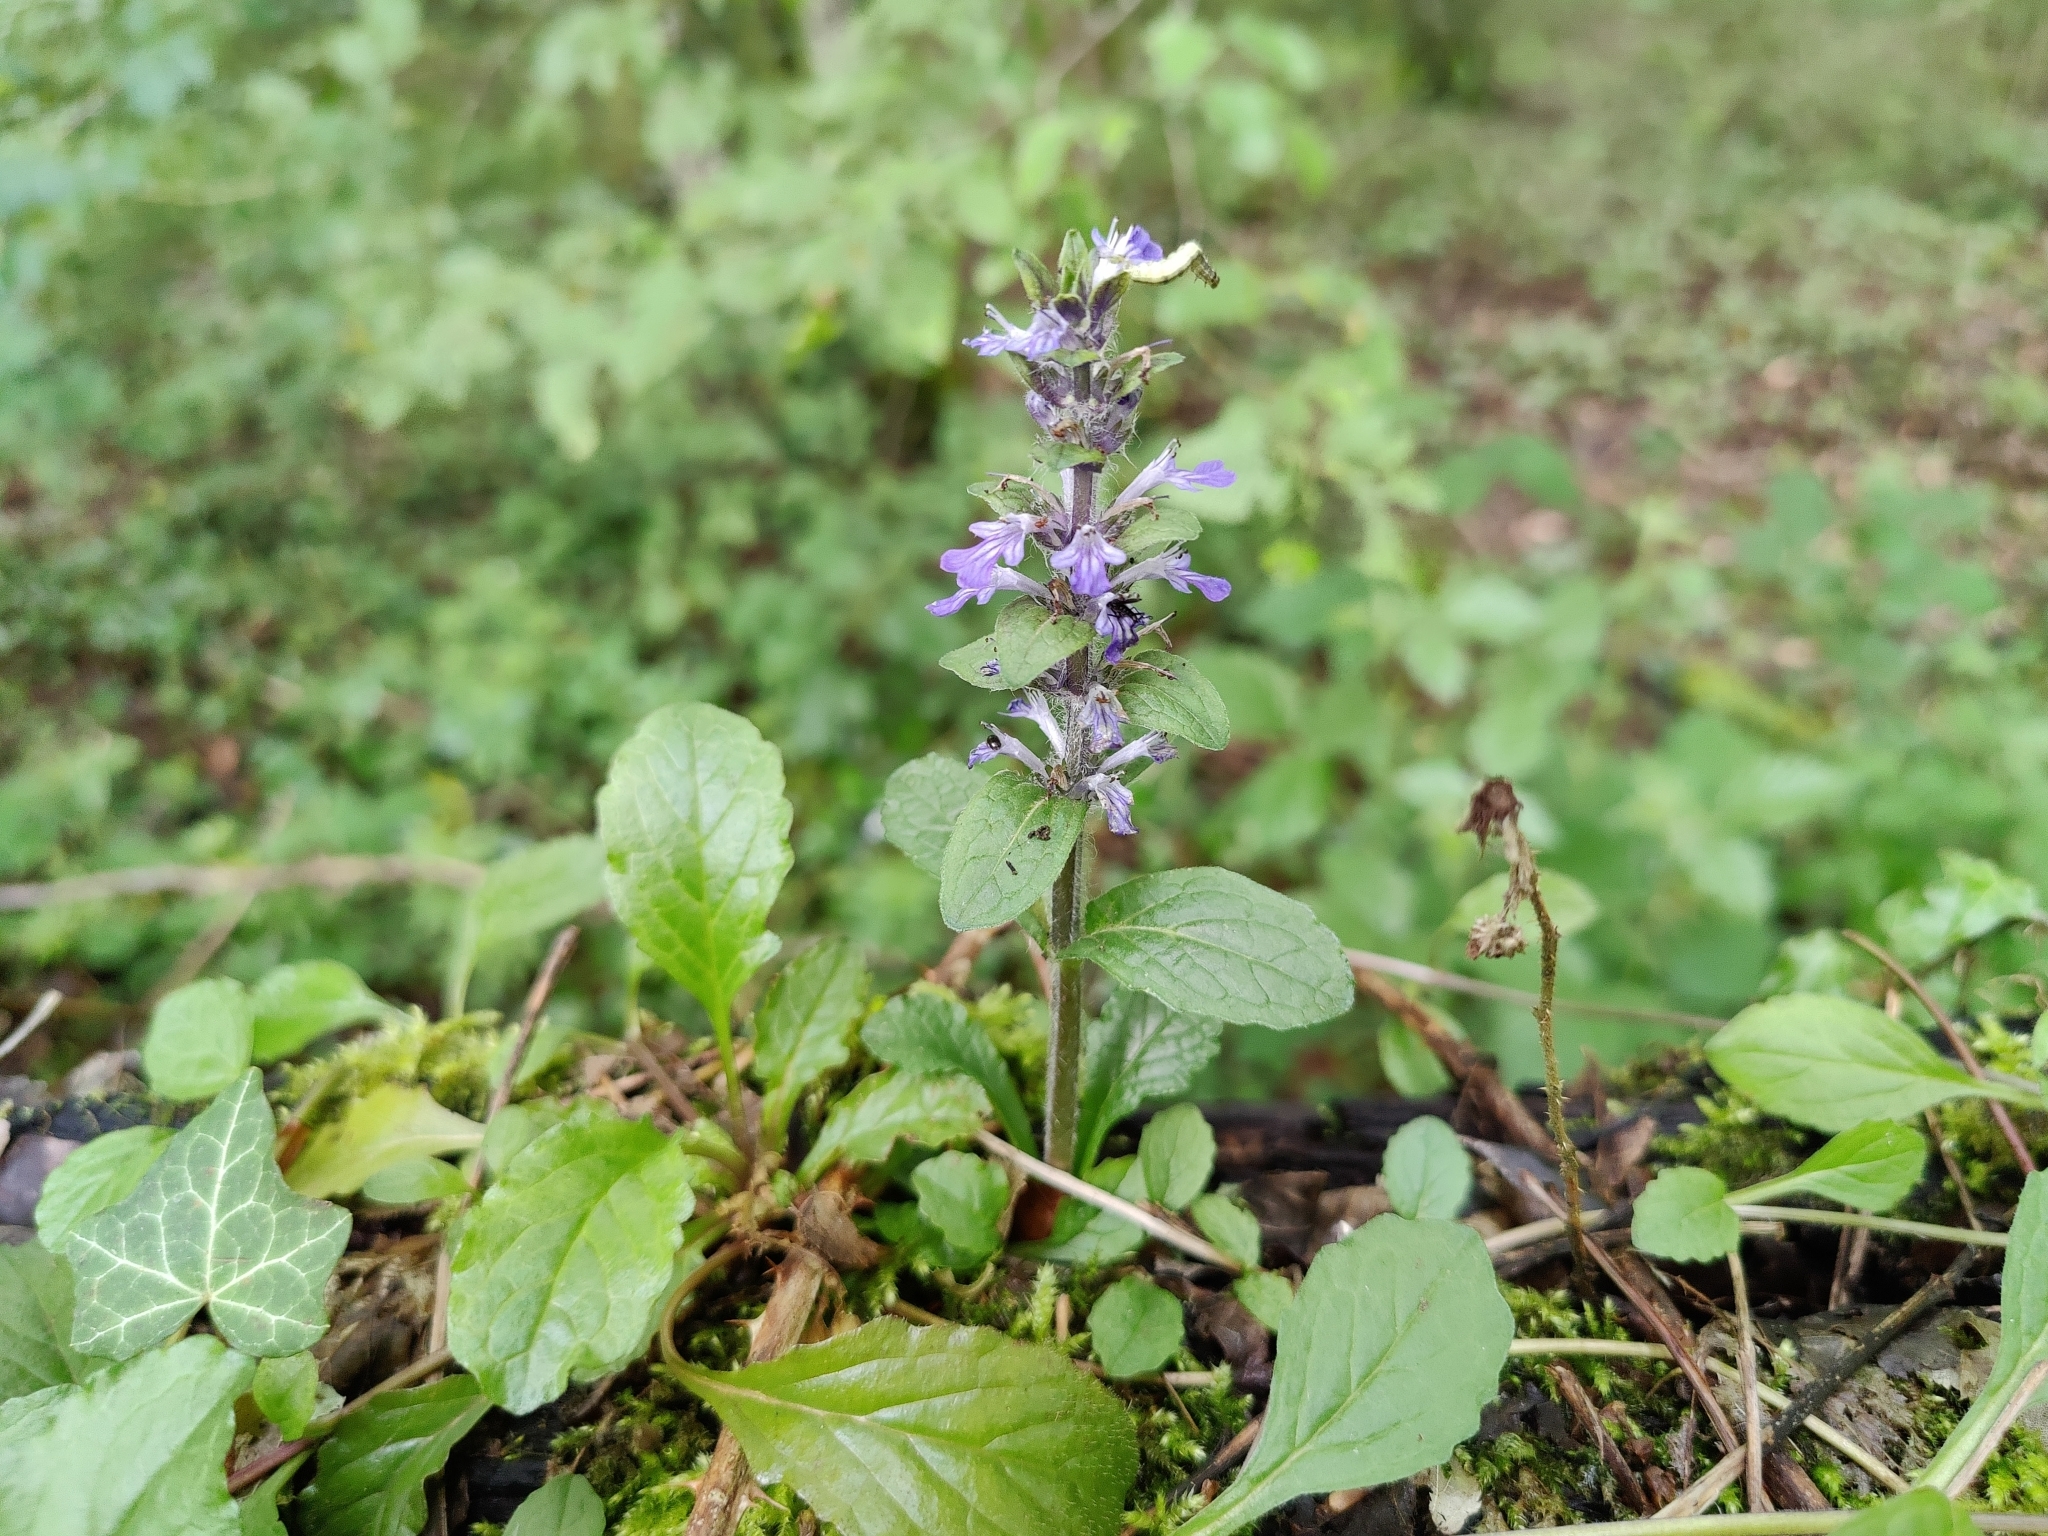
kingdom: Plantae
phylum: Tracheophyta
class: Magnoliopsida
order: Lamiales
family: Lamiaceae
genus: Ajuga
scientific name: Ajuga reptans
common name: Bugle
